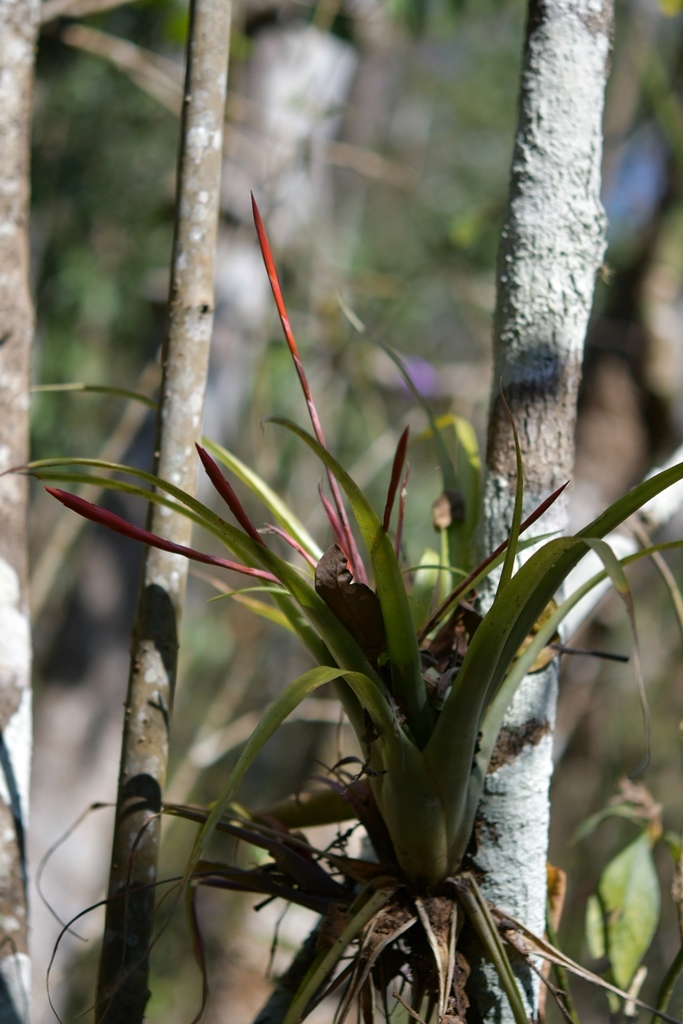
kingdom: Plantae
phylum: Tracheophyta
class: Liliopsida
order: Poales
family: Bromeliaceae
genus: Tillandsia
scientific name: Tillandsia flabellata
